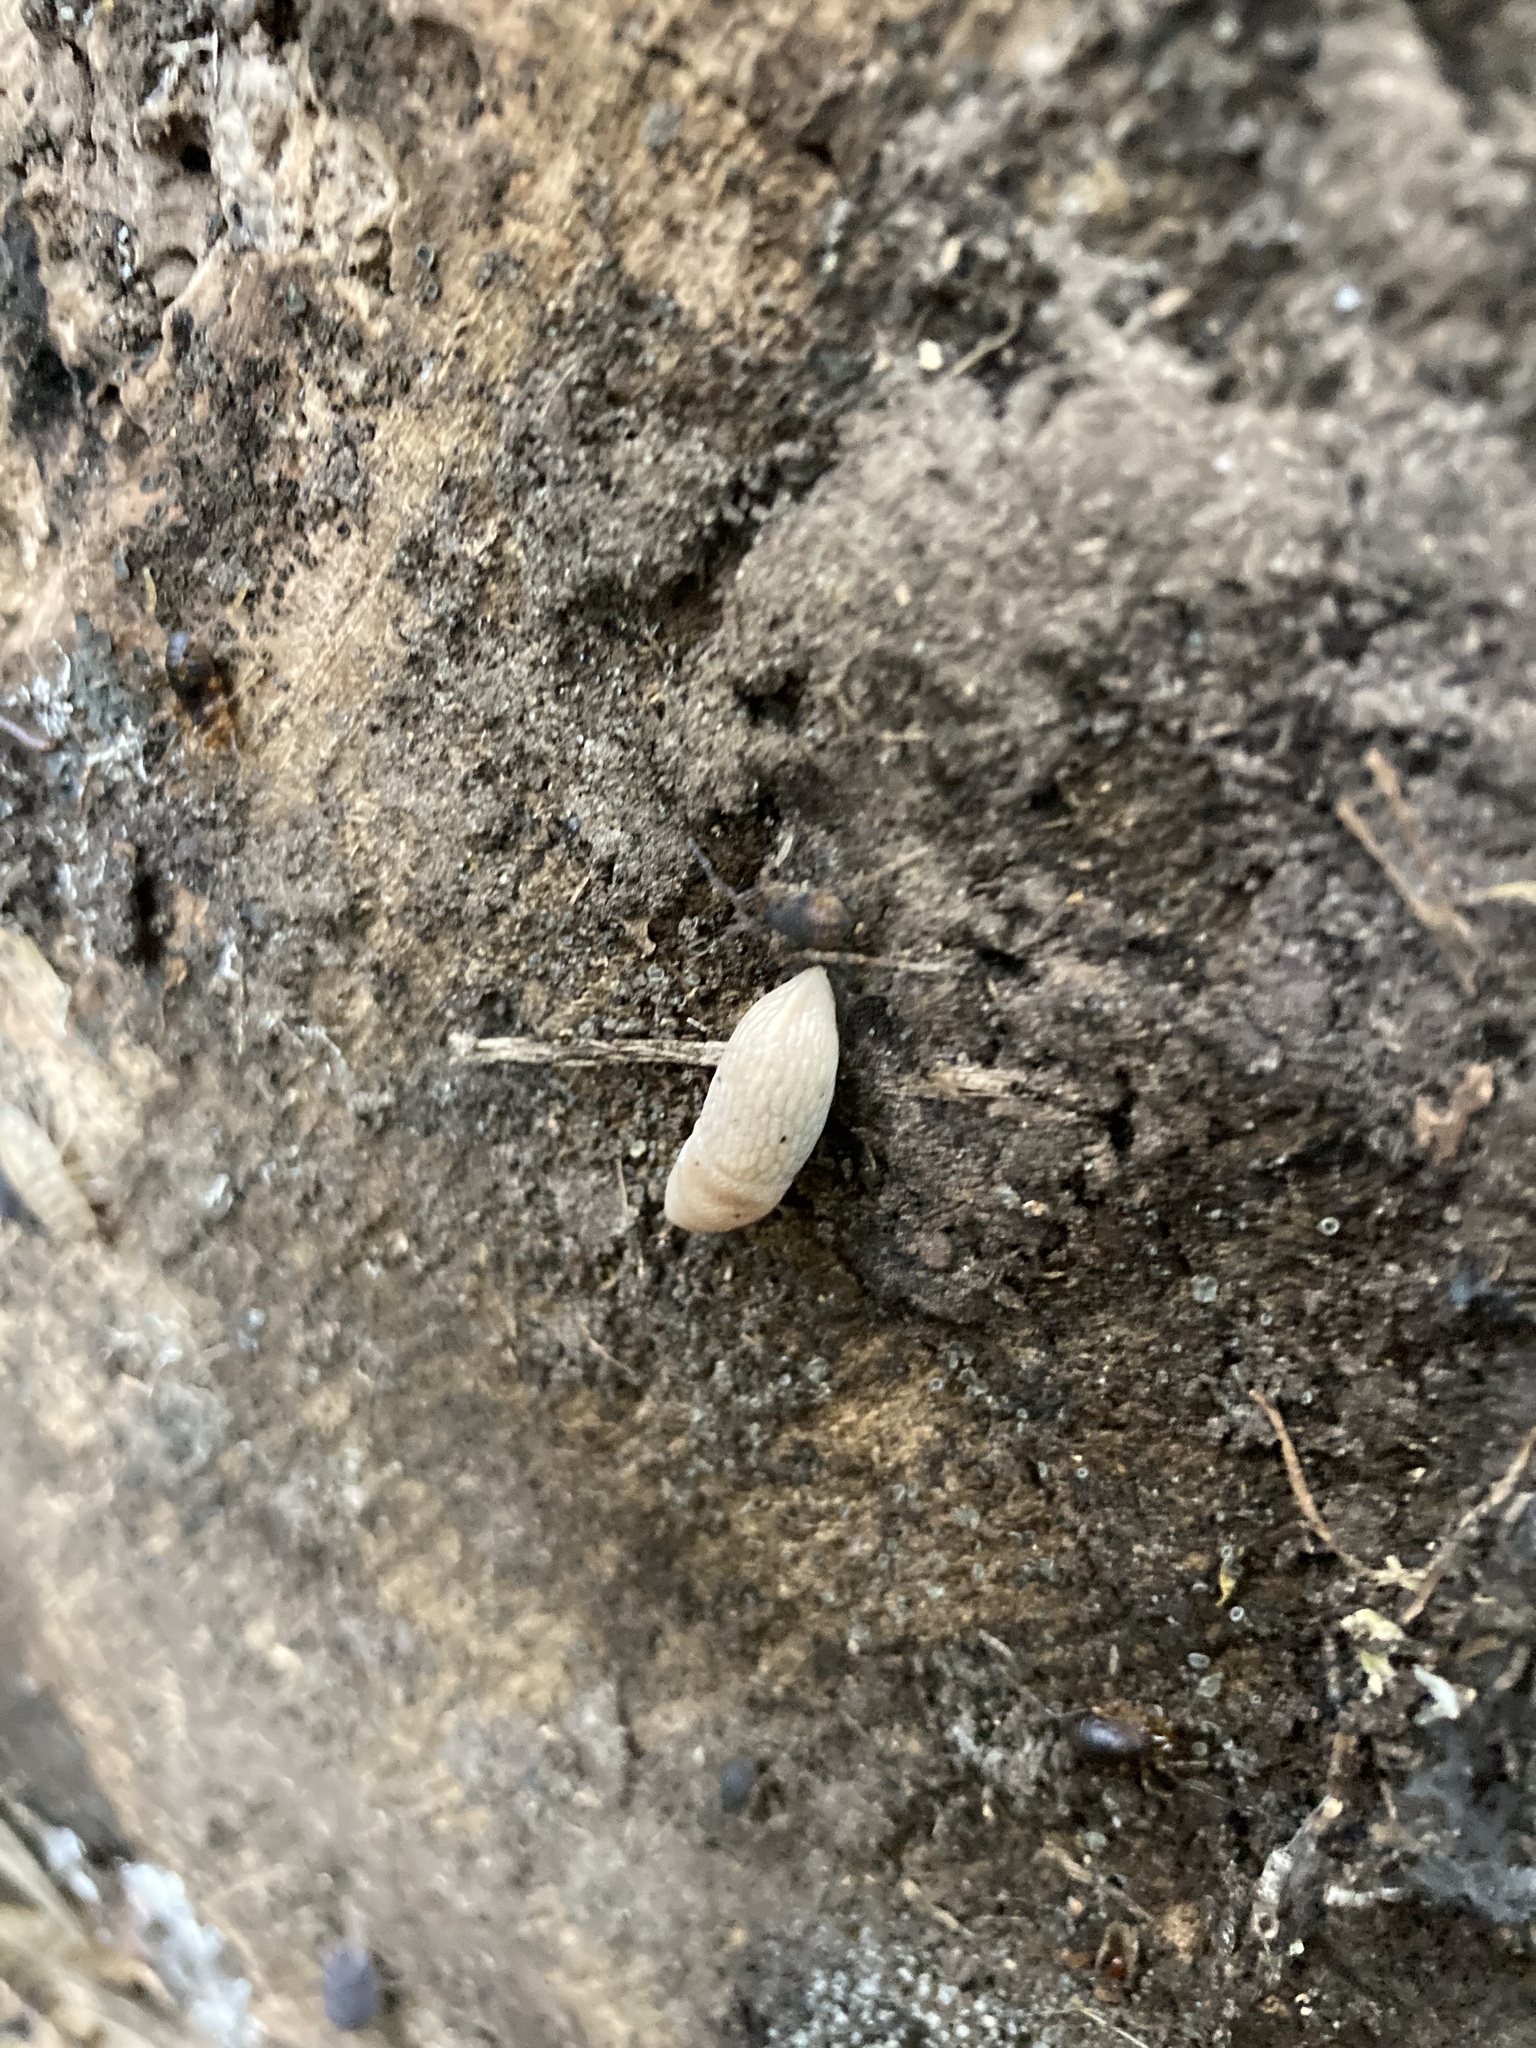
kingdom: Animalia
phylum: Mollusca
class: Gastropoda
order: Stylommatophora
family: Agriolimacidae
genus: Deroceras
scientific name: Deroceras reticulatum
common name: Gray field slug
